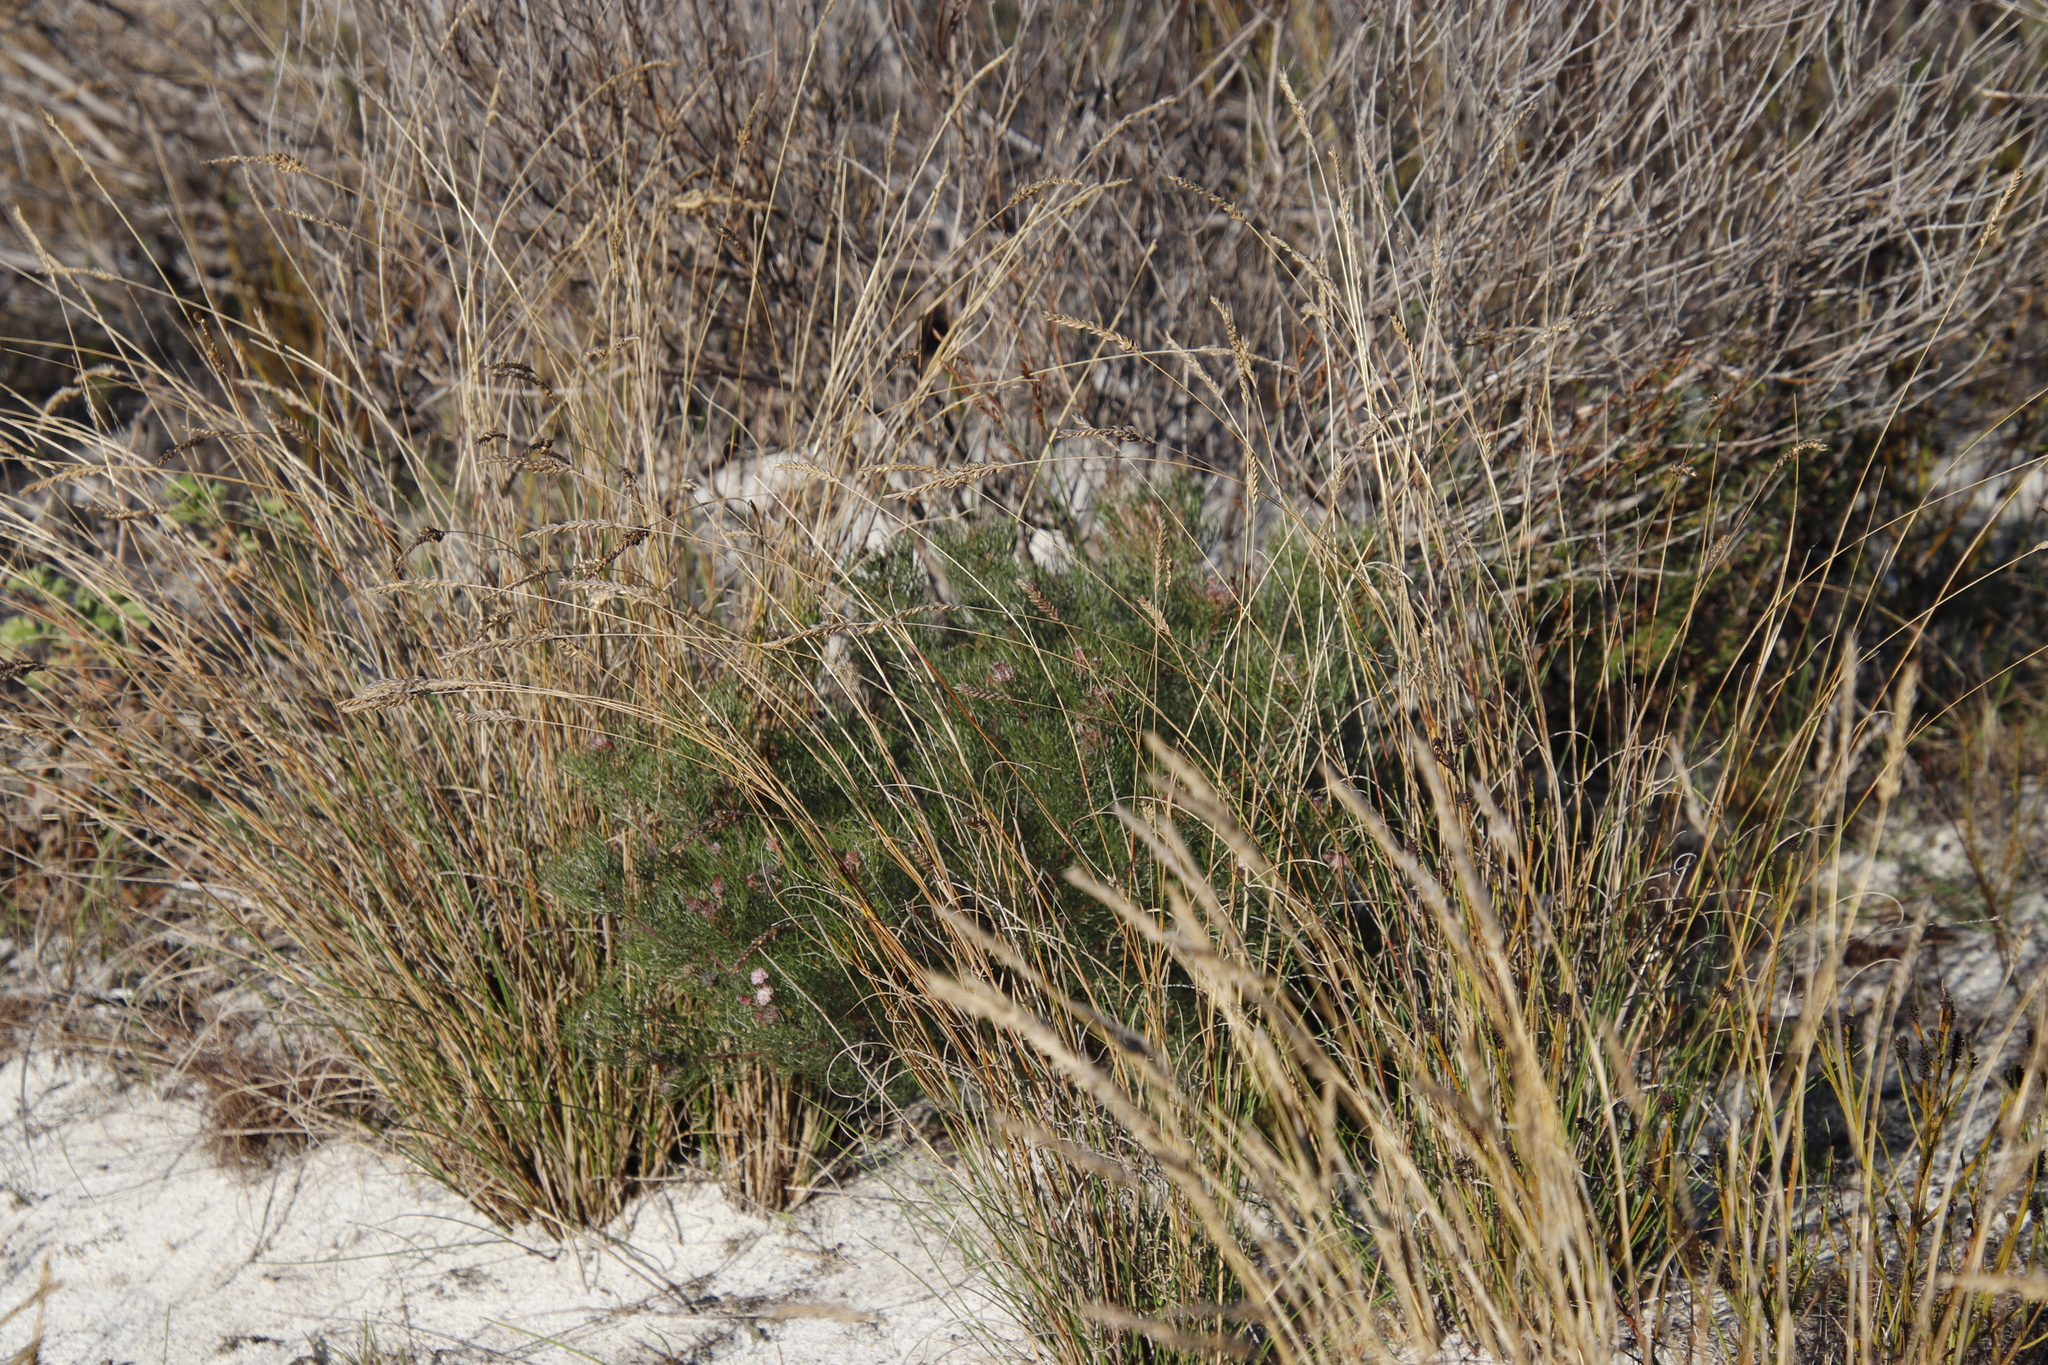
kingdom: Plantae
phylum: Tracheophyta
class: Magnoliopsida
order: Proteales
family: Proteaceae
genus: Serruria
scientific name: Serruria fasciflora
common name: Common pin spiderhead
